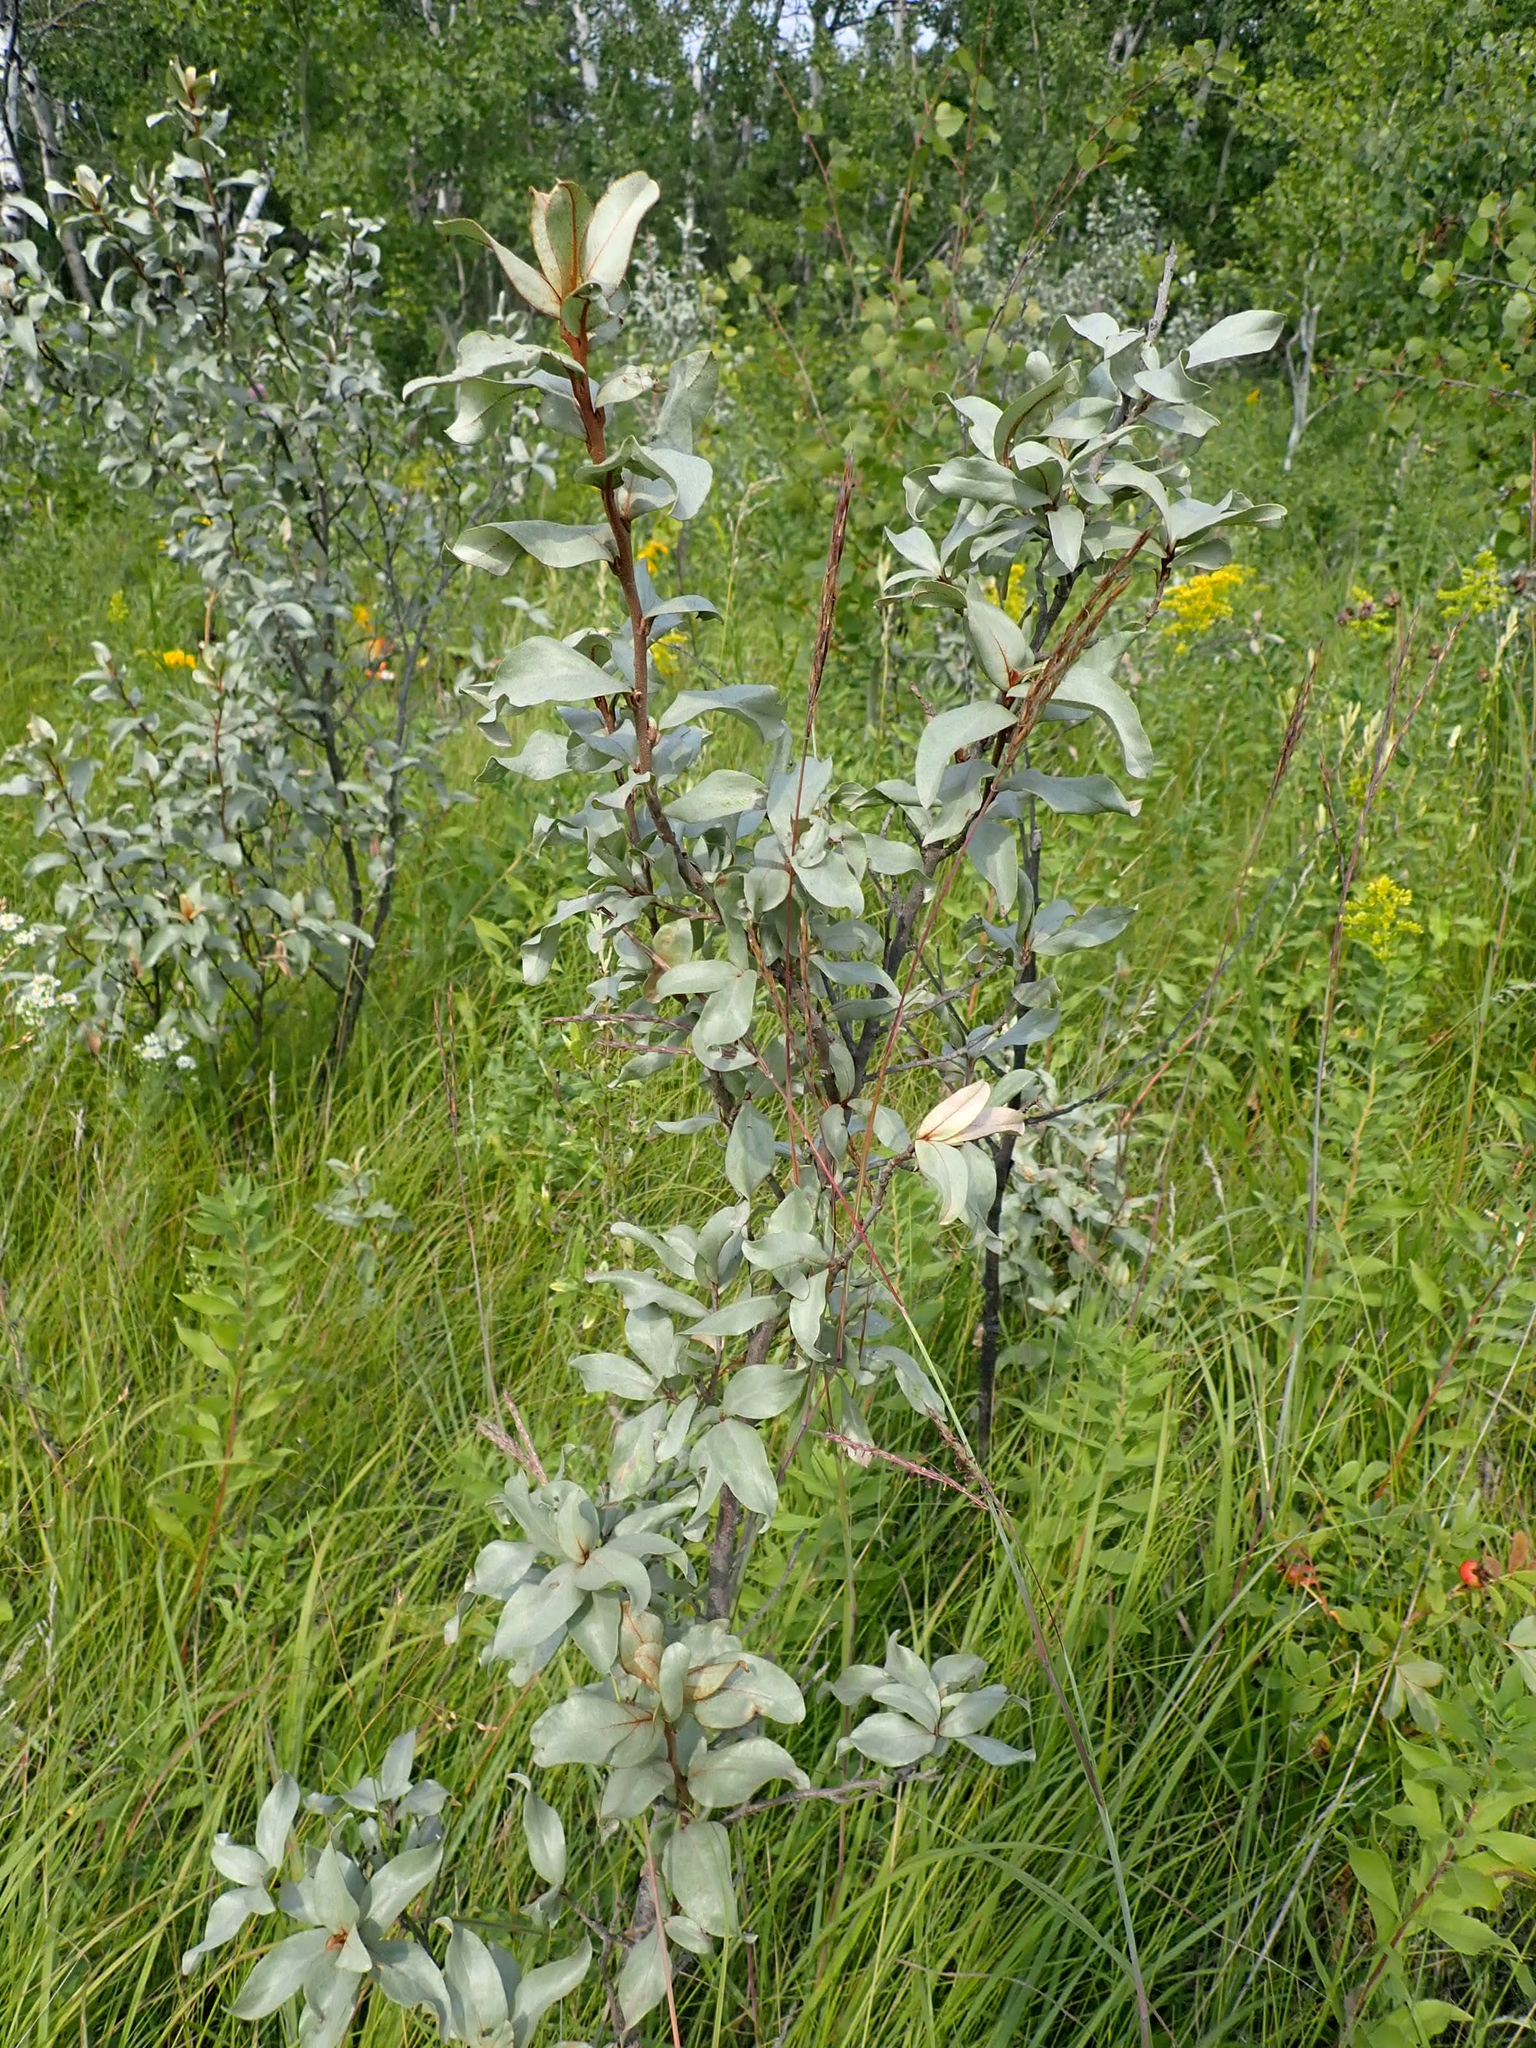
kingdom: Plantae
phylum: Tracheophyta
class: Magnoliopsida
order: Rosales
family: Elaeagnaceae
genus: Elaeagnus
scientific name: Elaeagnus commutata
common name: Silverberry
